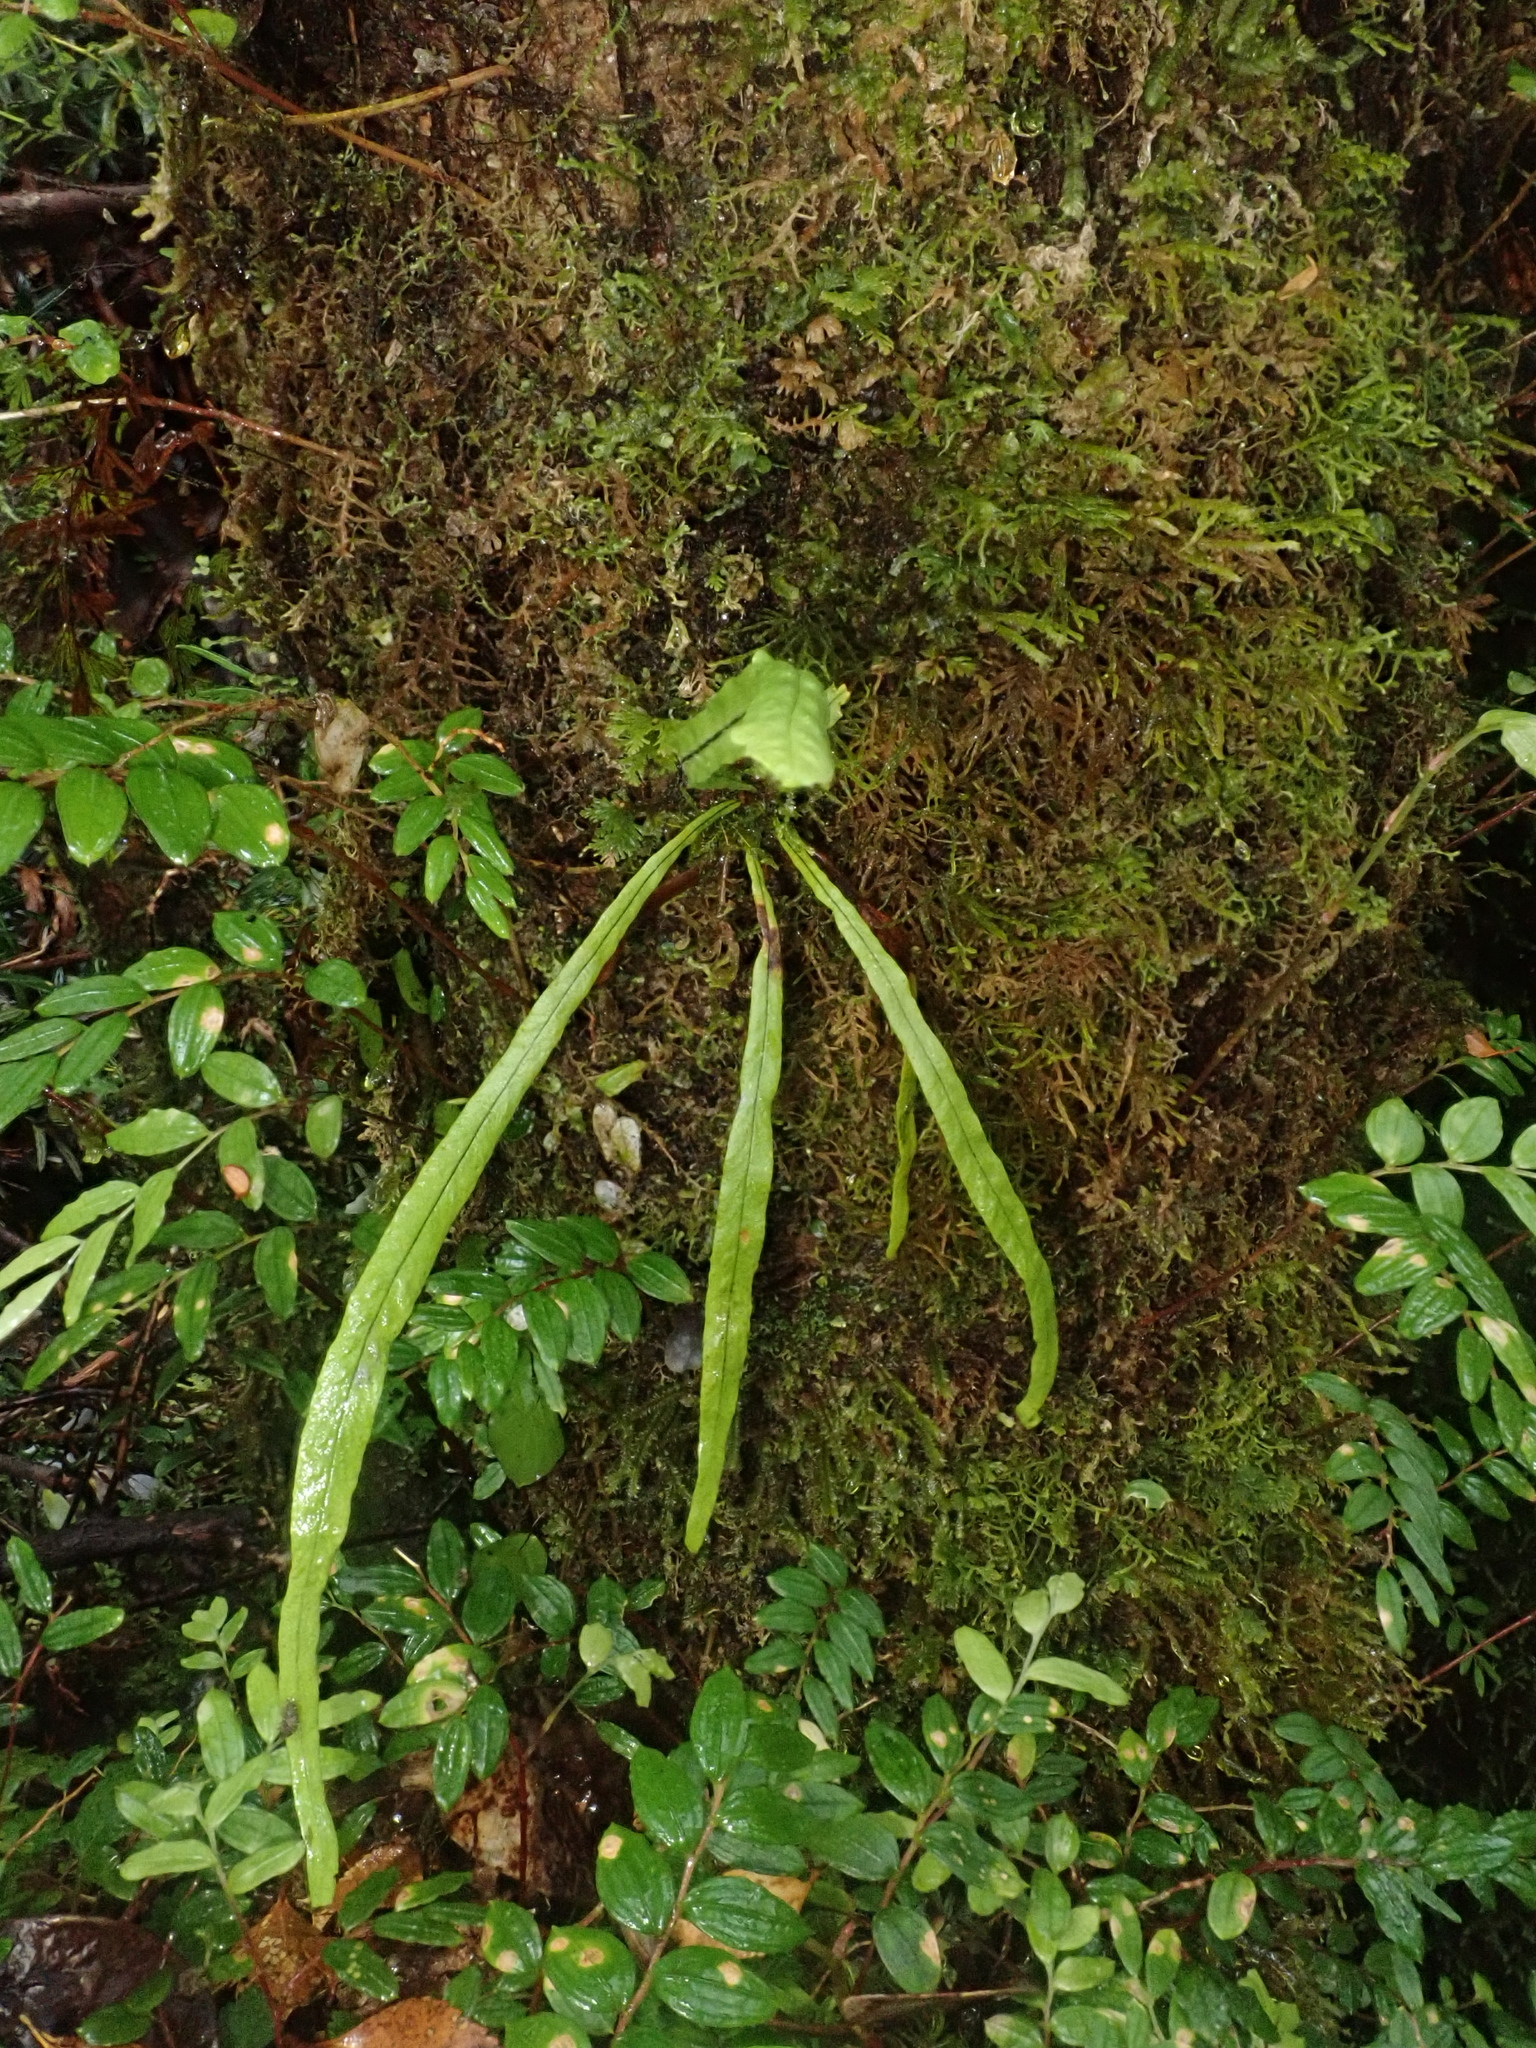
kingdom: Plantae
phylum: Tracheophyta
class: Polypodiopsida
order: Polypodiales
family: Polypodiaceae
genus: Notogrammitis
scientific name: Notogrammitis angustifolia
